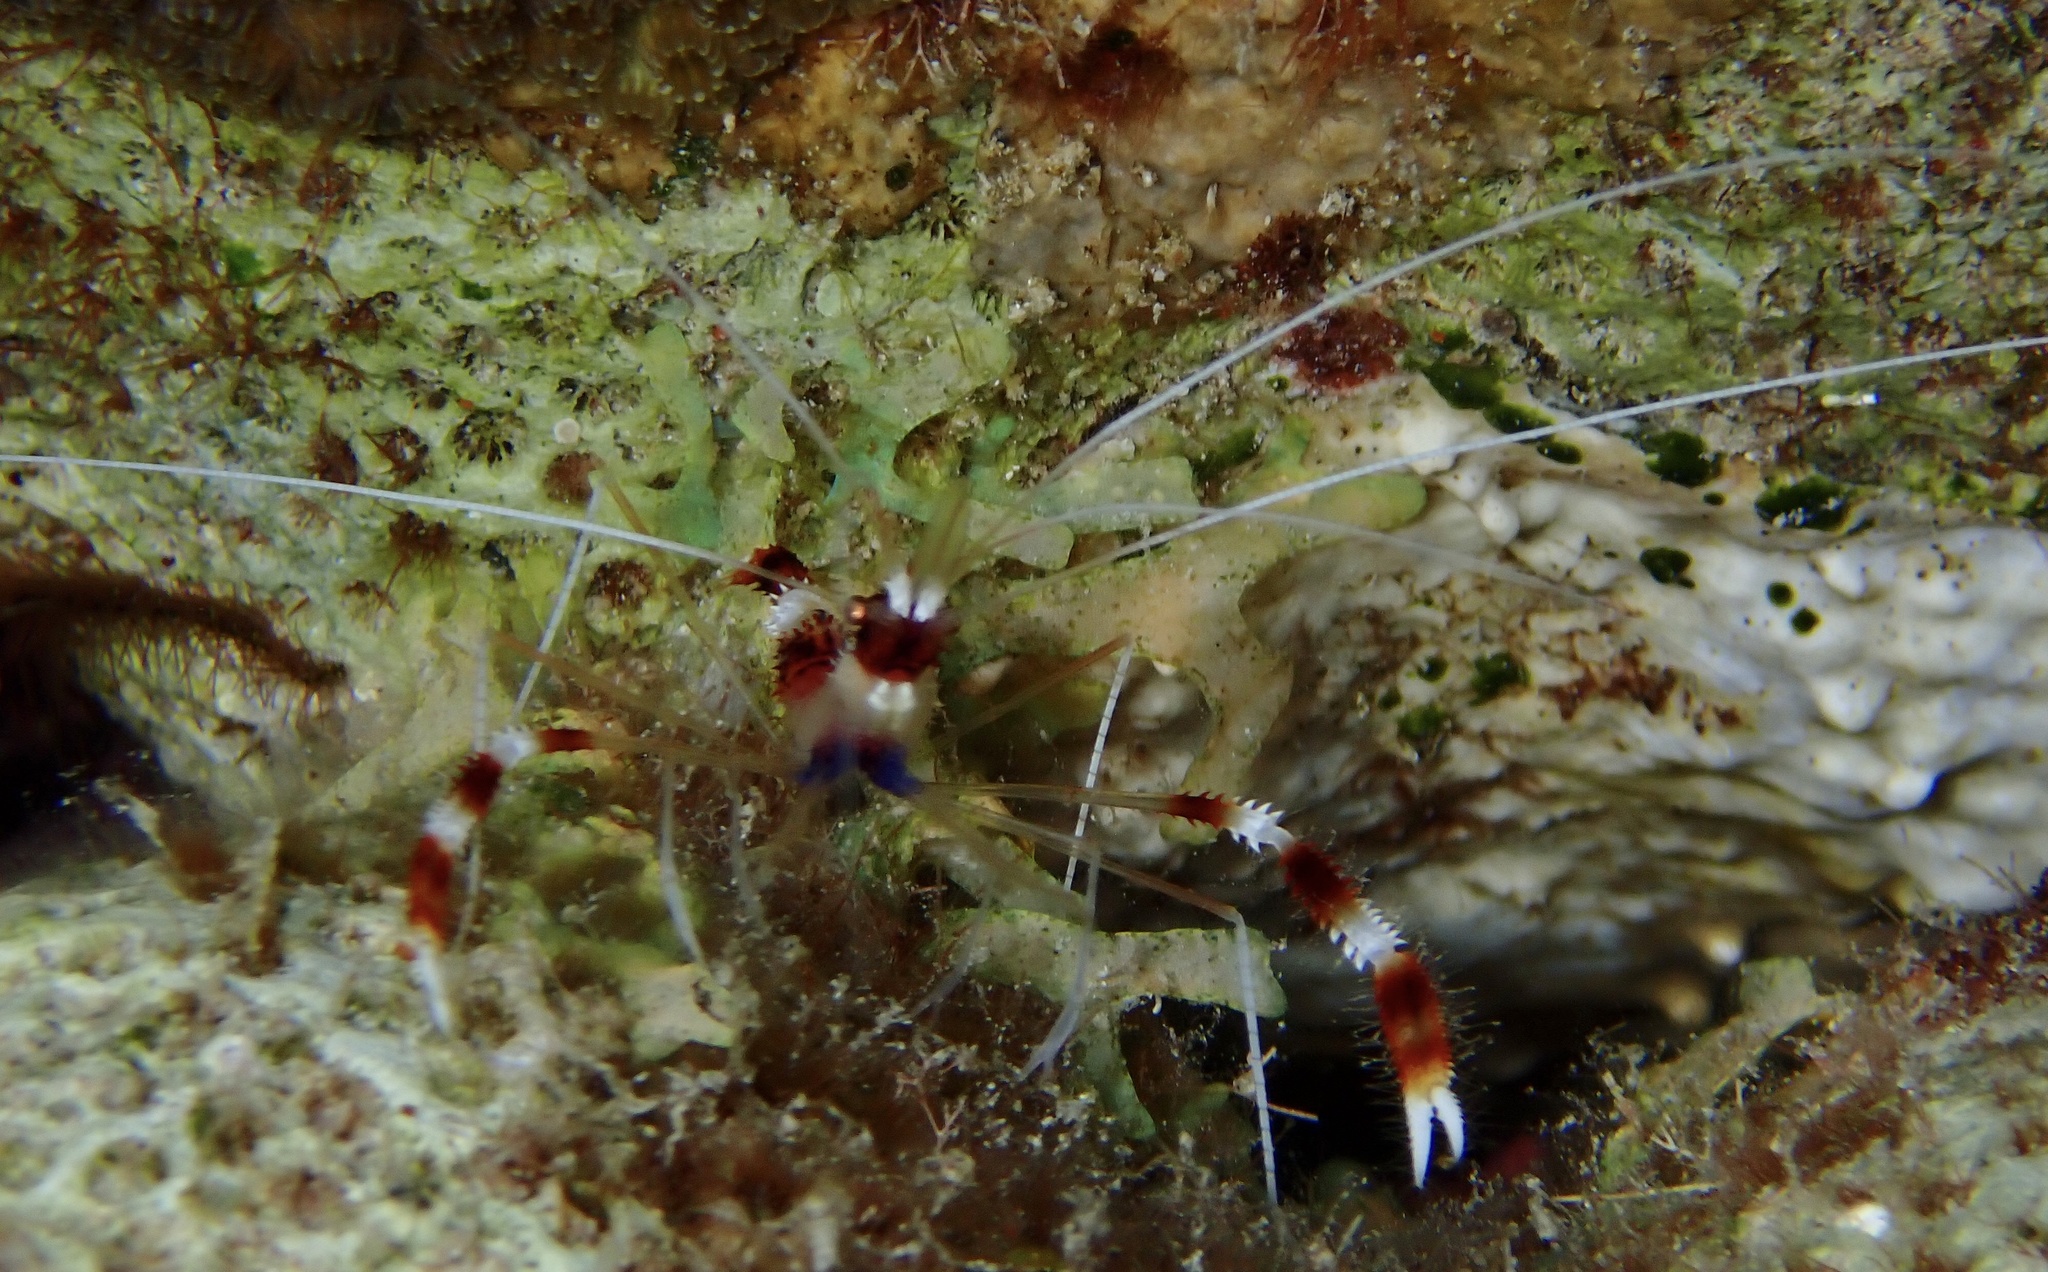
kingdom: Animalia
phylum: Arthropoda
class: Malacostraca
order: Decapoda
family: Stenopodidae
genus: Stenopus
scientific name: Stenopus hispidus
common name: Banded coral shrimp
